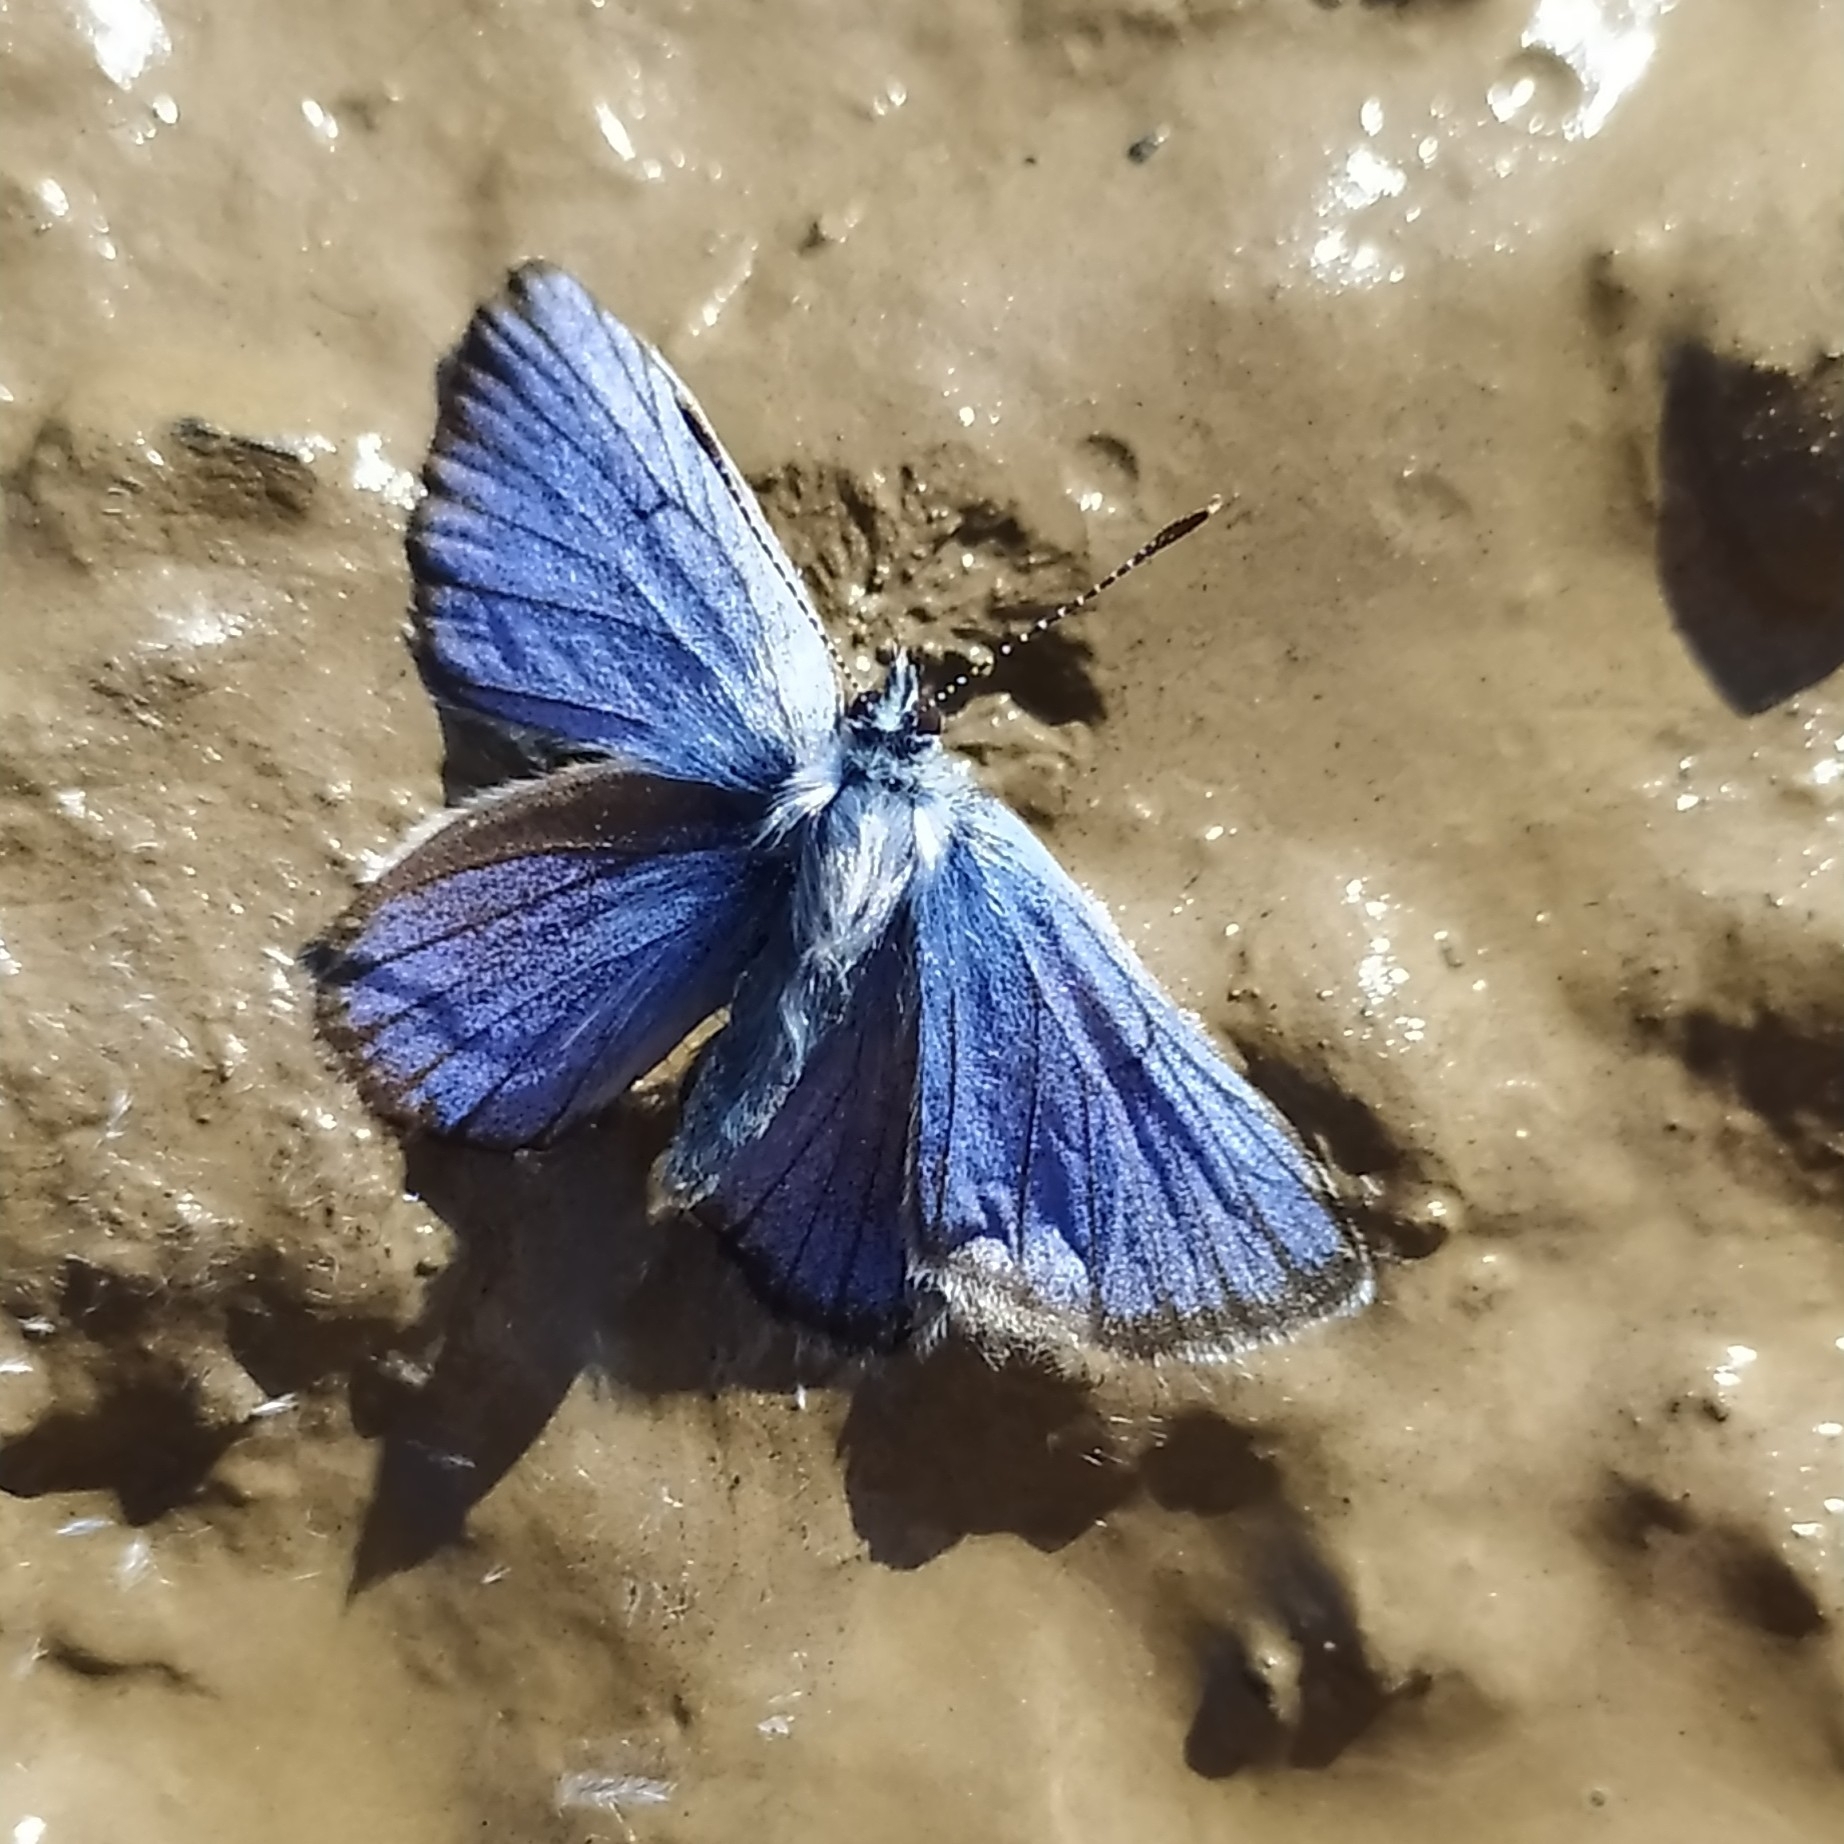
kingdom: Animalia
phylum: Arthropoda
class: Insecta
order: Lepidoptera
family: Lycaenidae
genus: Cyaniris
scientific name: Cyaniris semiargus
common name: Mazarine blue
